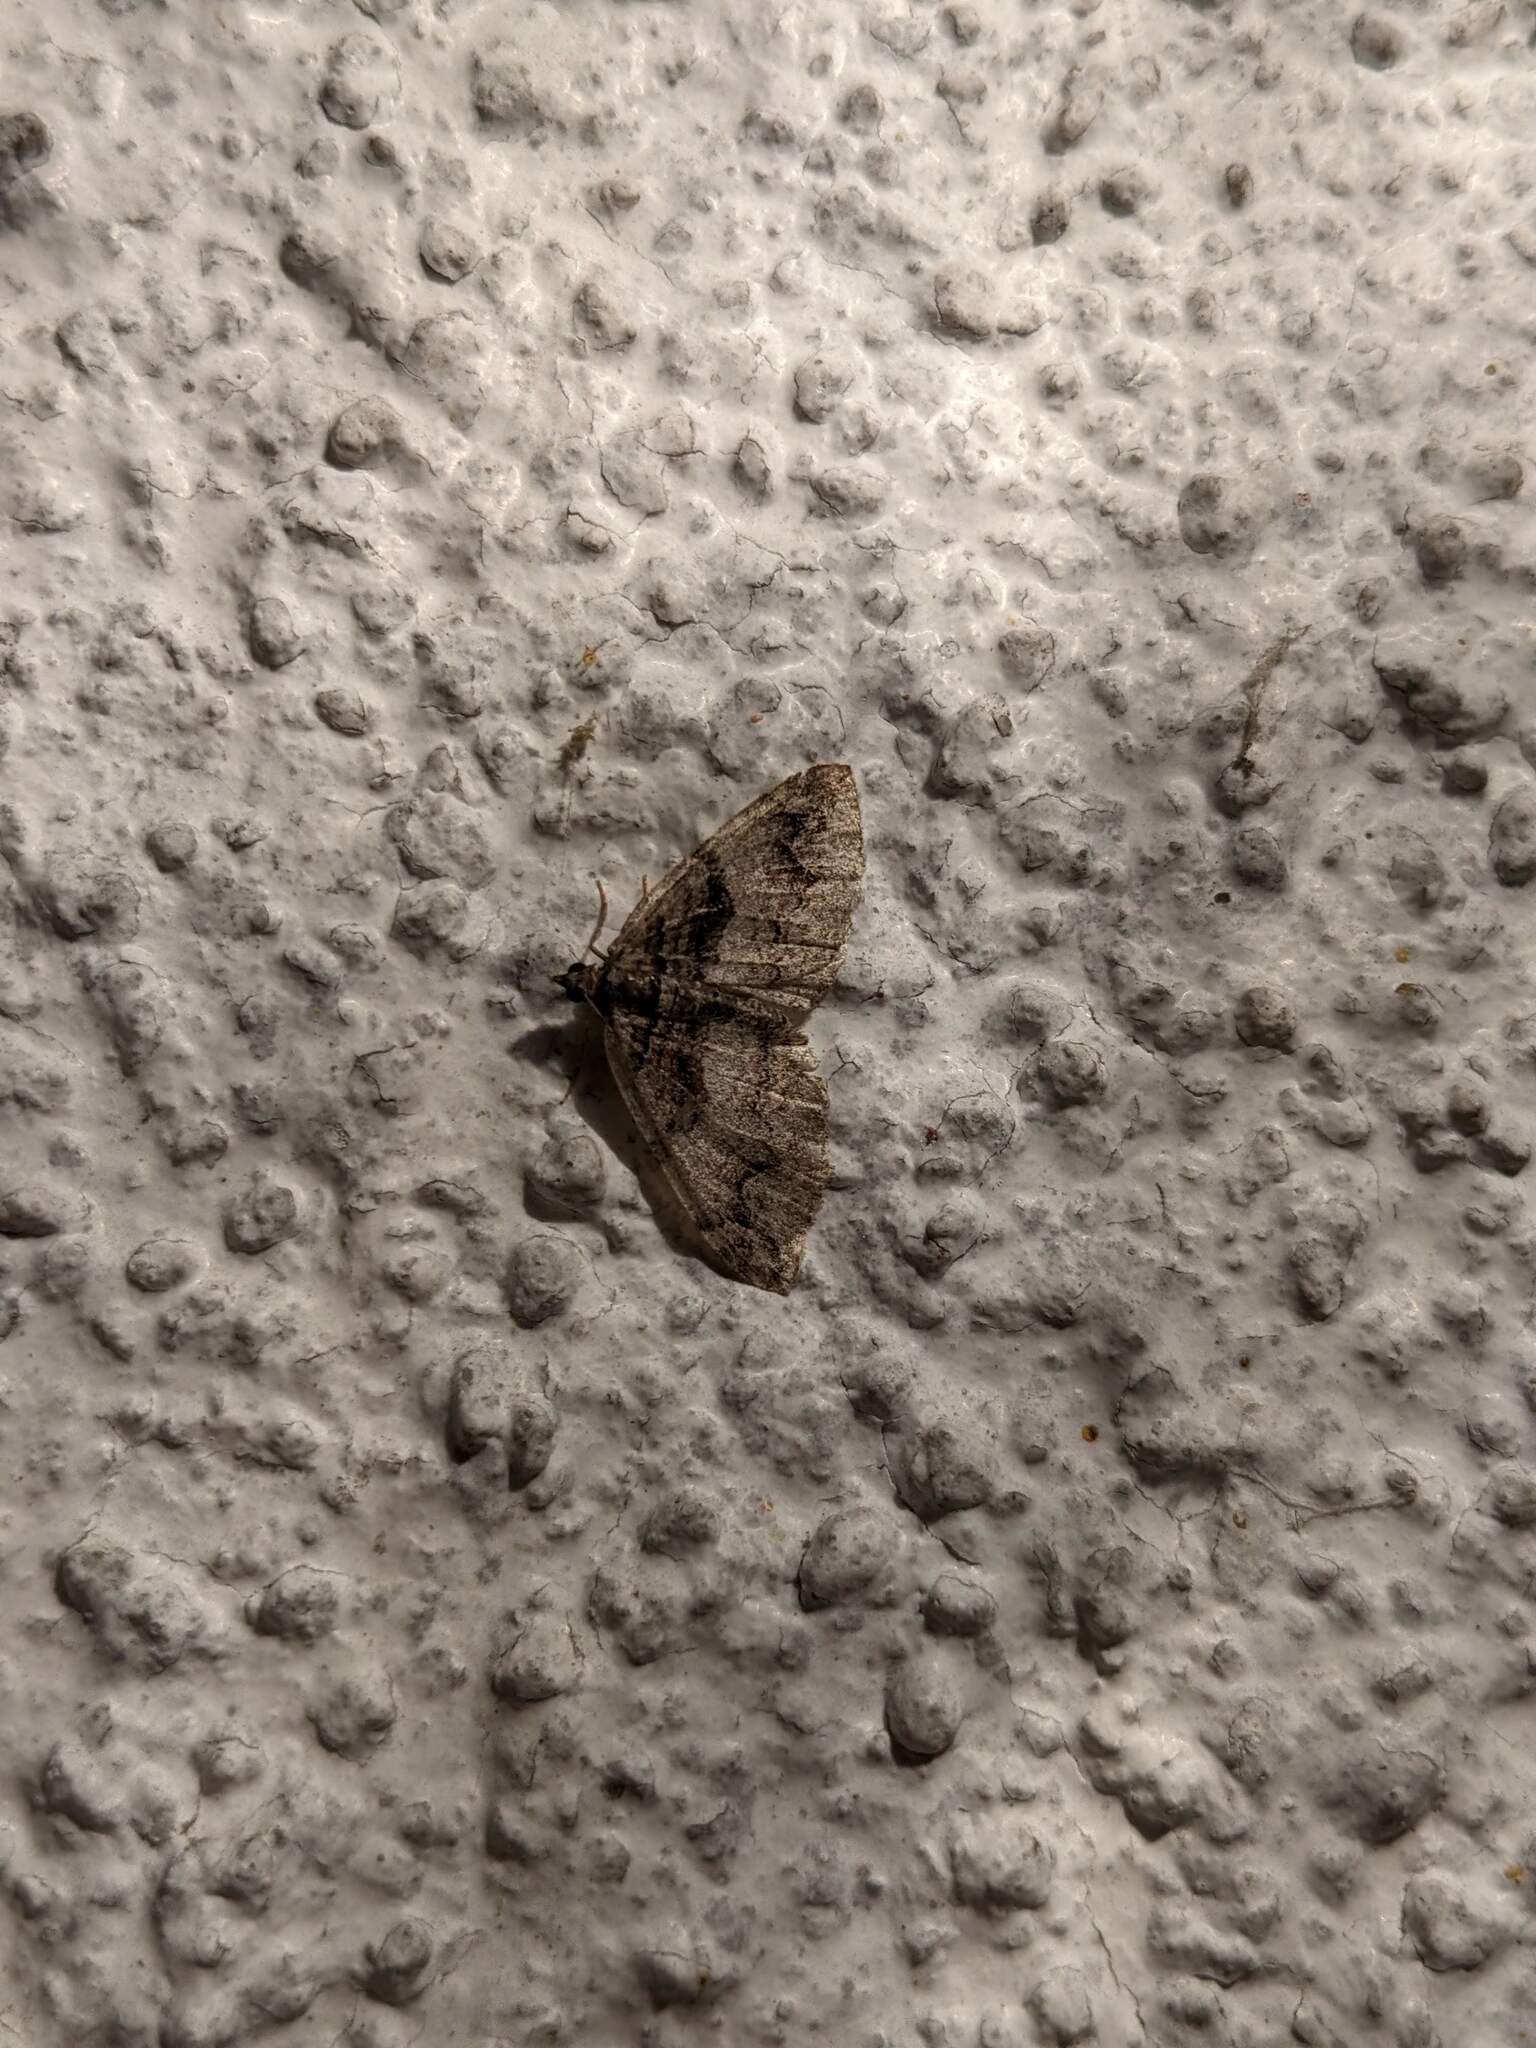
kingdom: Animalia
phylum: Arthropoda
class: Insecta
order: Lepidoptera
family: Geometridae
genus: Pareulype
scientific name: Pareulype berberata
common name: Barberry carpet
